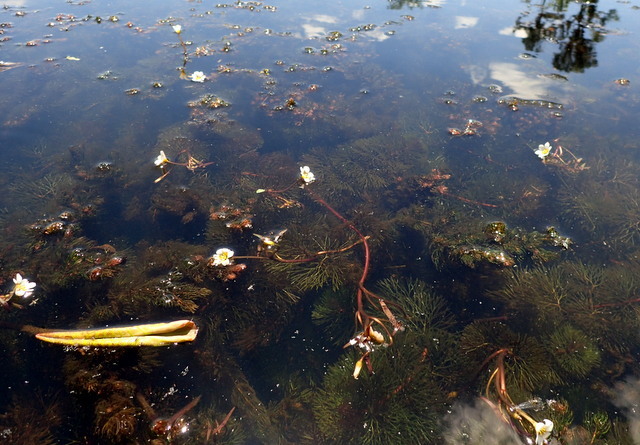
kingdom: Plantae
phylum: Tracheophyta
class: Magnoliopsida
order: Nymphaeales
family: Cabombaceae
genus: Cabomba
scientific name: Cabomba caroliniana
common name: Fanwort
